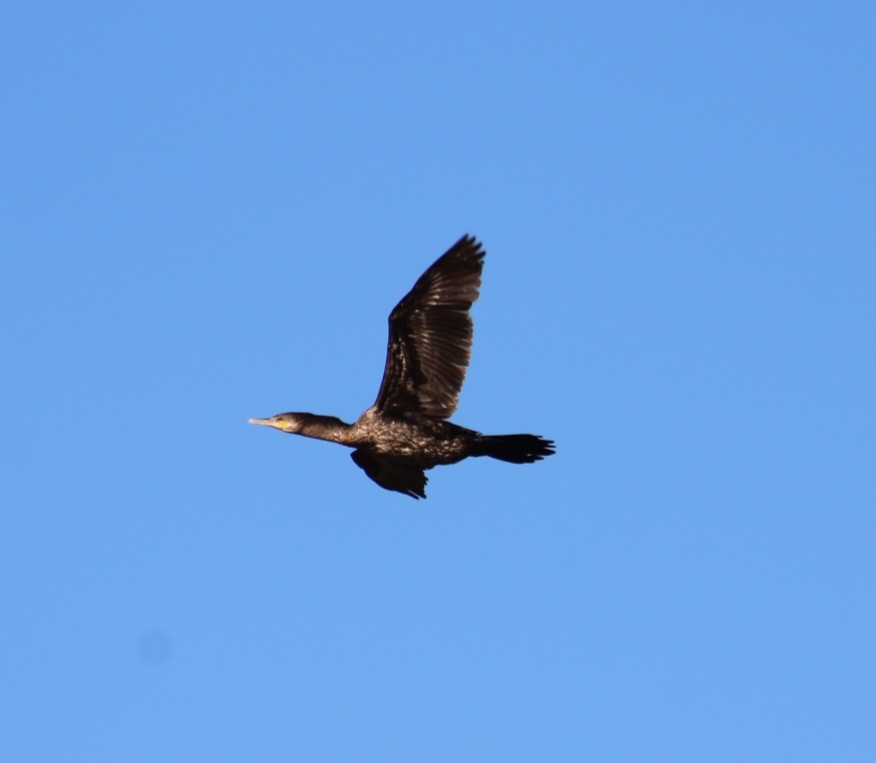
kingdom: Animalia
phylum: Chordata
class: Aves
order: Suliformes
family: Phalacrocoracidae
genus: Phalacrocorax
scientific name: Phalacrocorax brasilianus
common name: Neotropic cormorant
